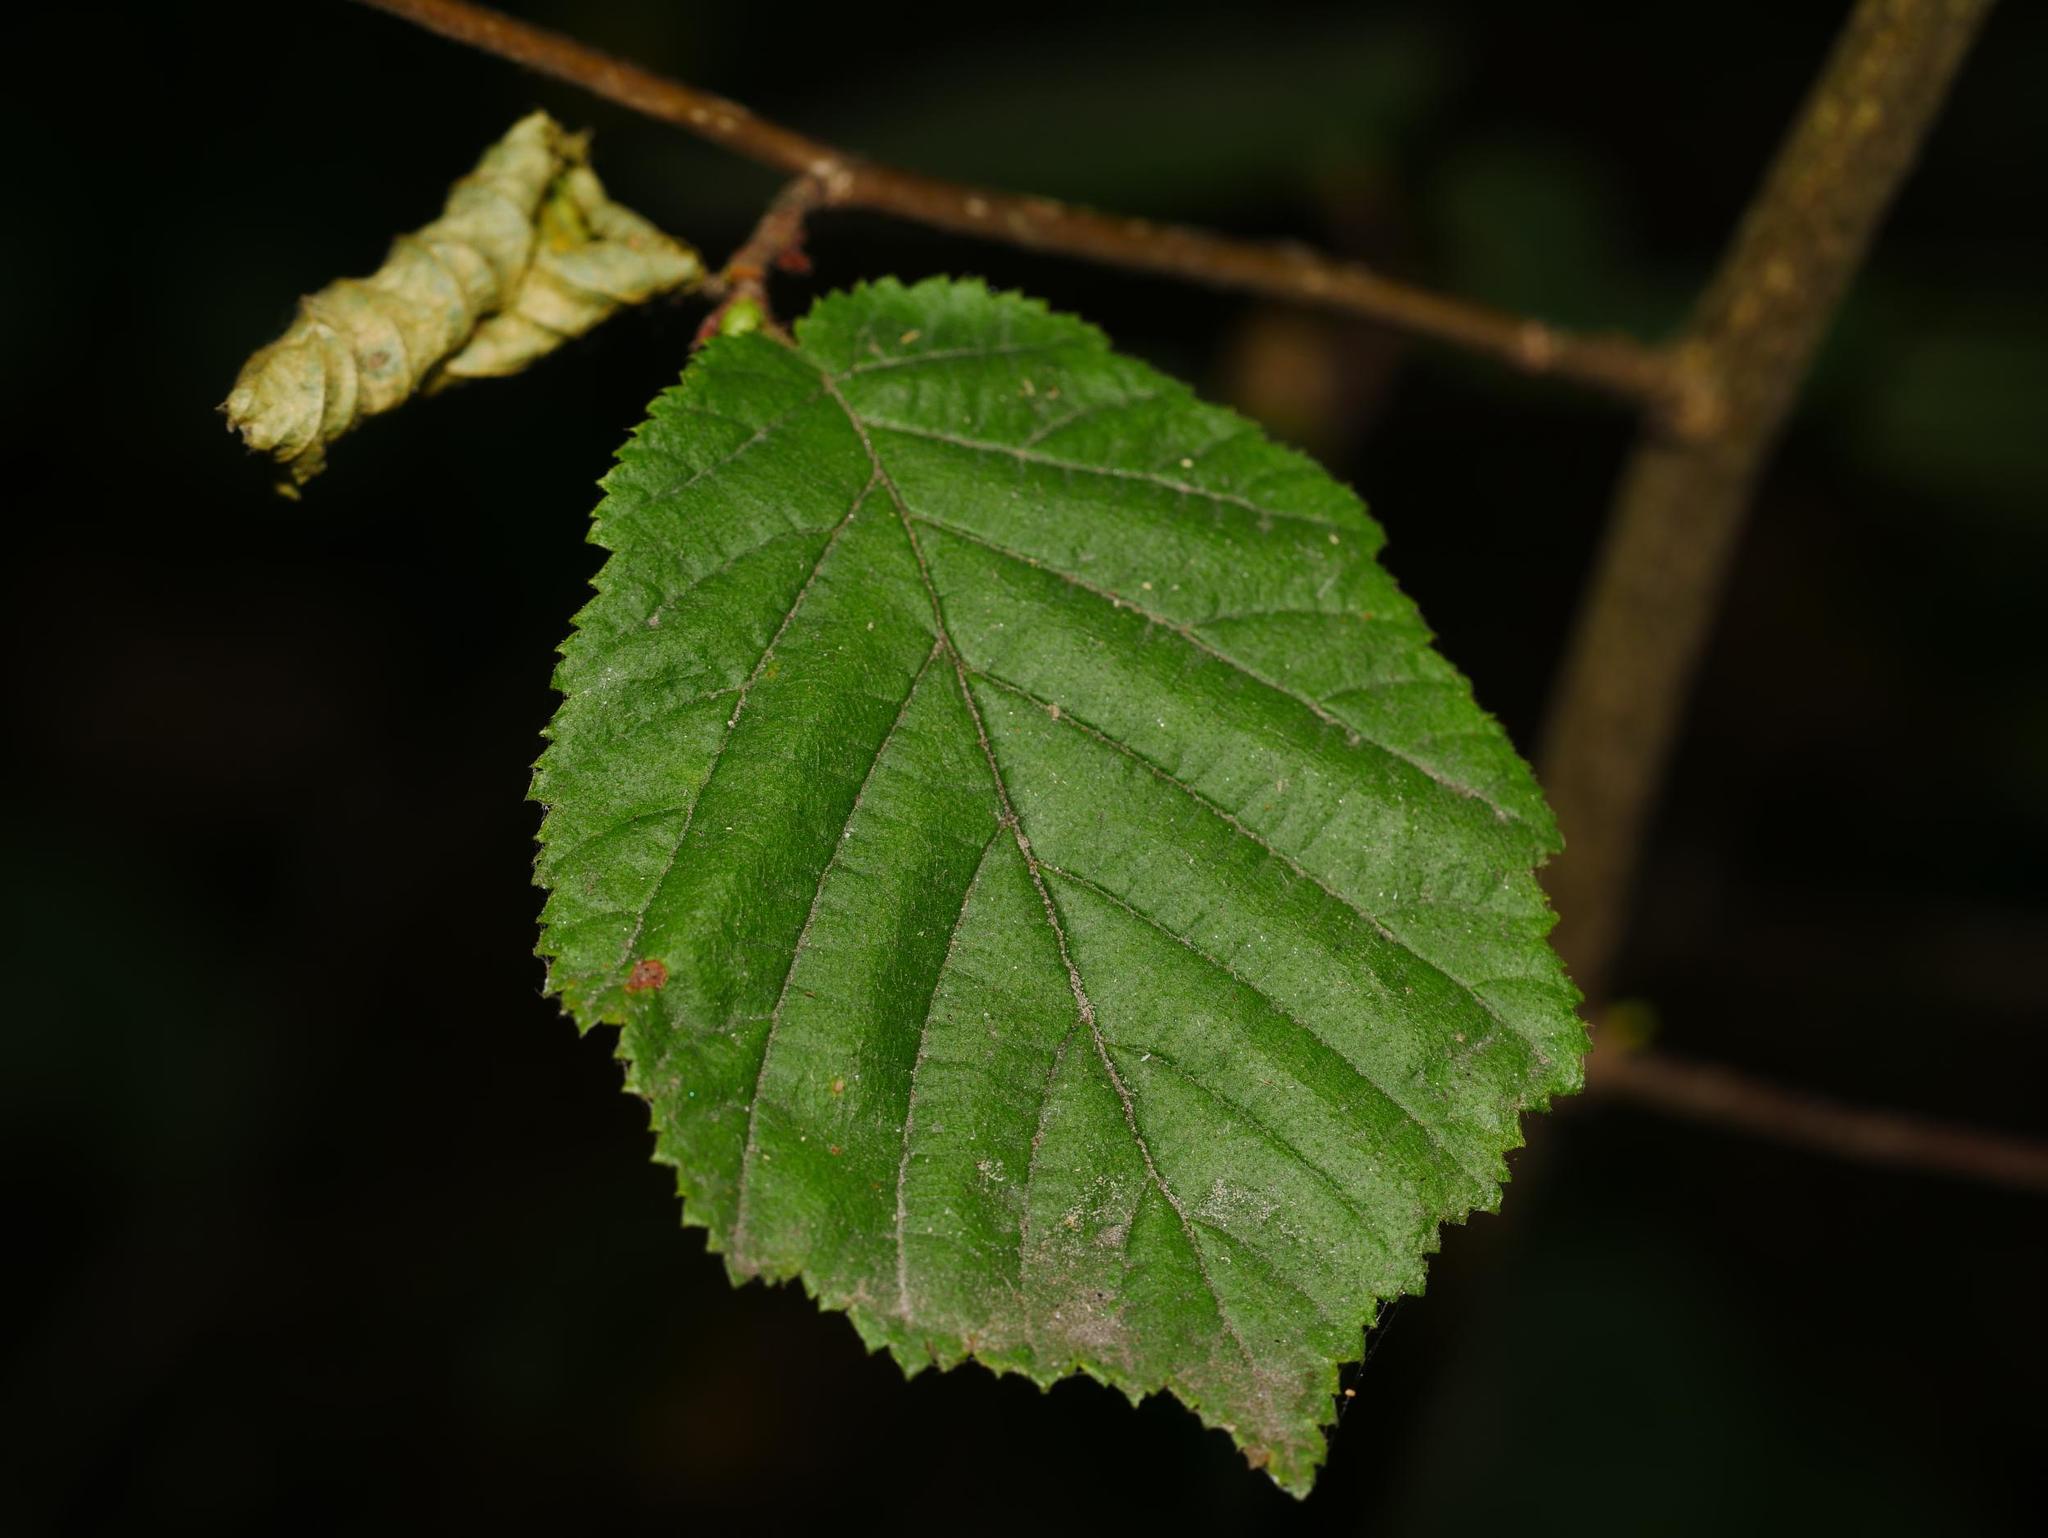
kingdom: Plantae
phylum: Tracheophyta
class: Magnoliopsida
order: Fagales
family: Betulaceae
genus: Corylus
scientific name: Corylus avellana
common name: European hazel
